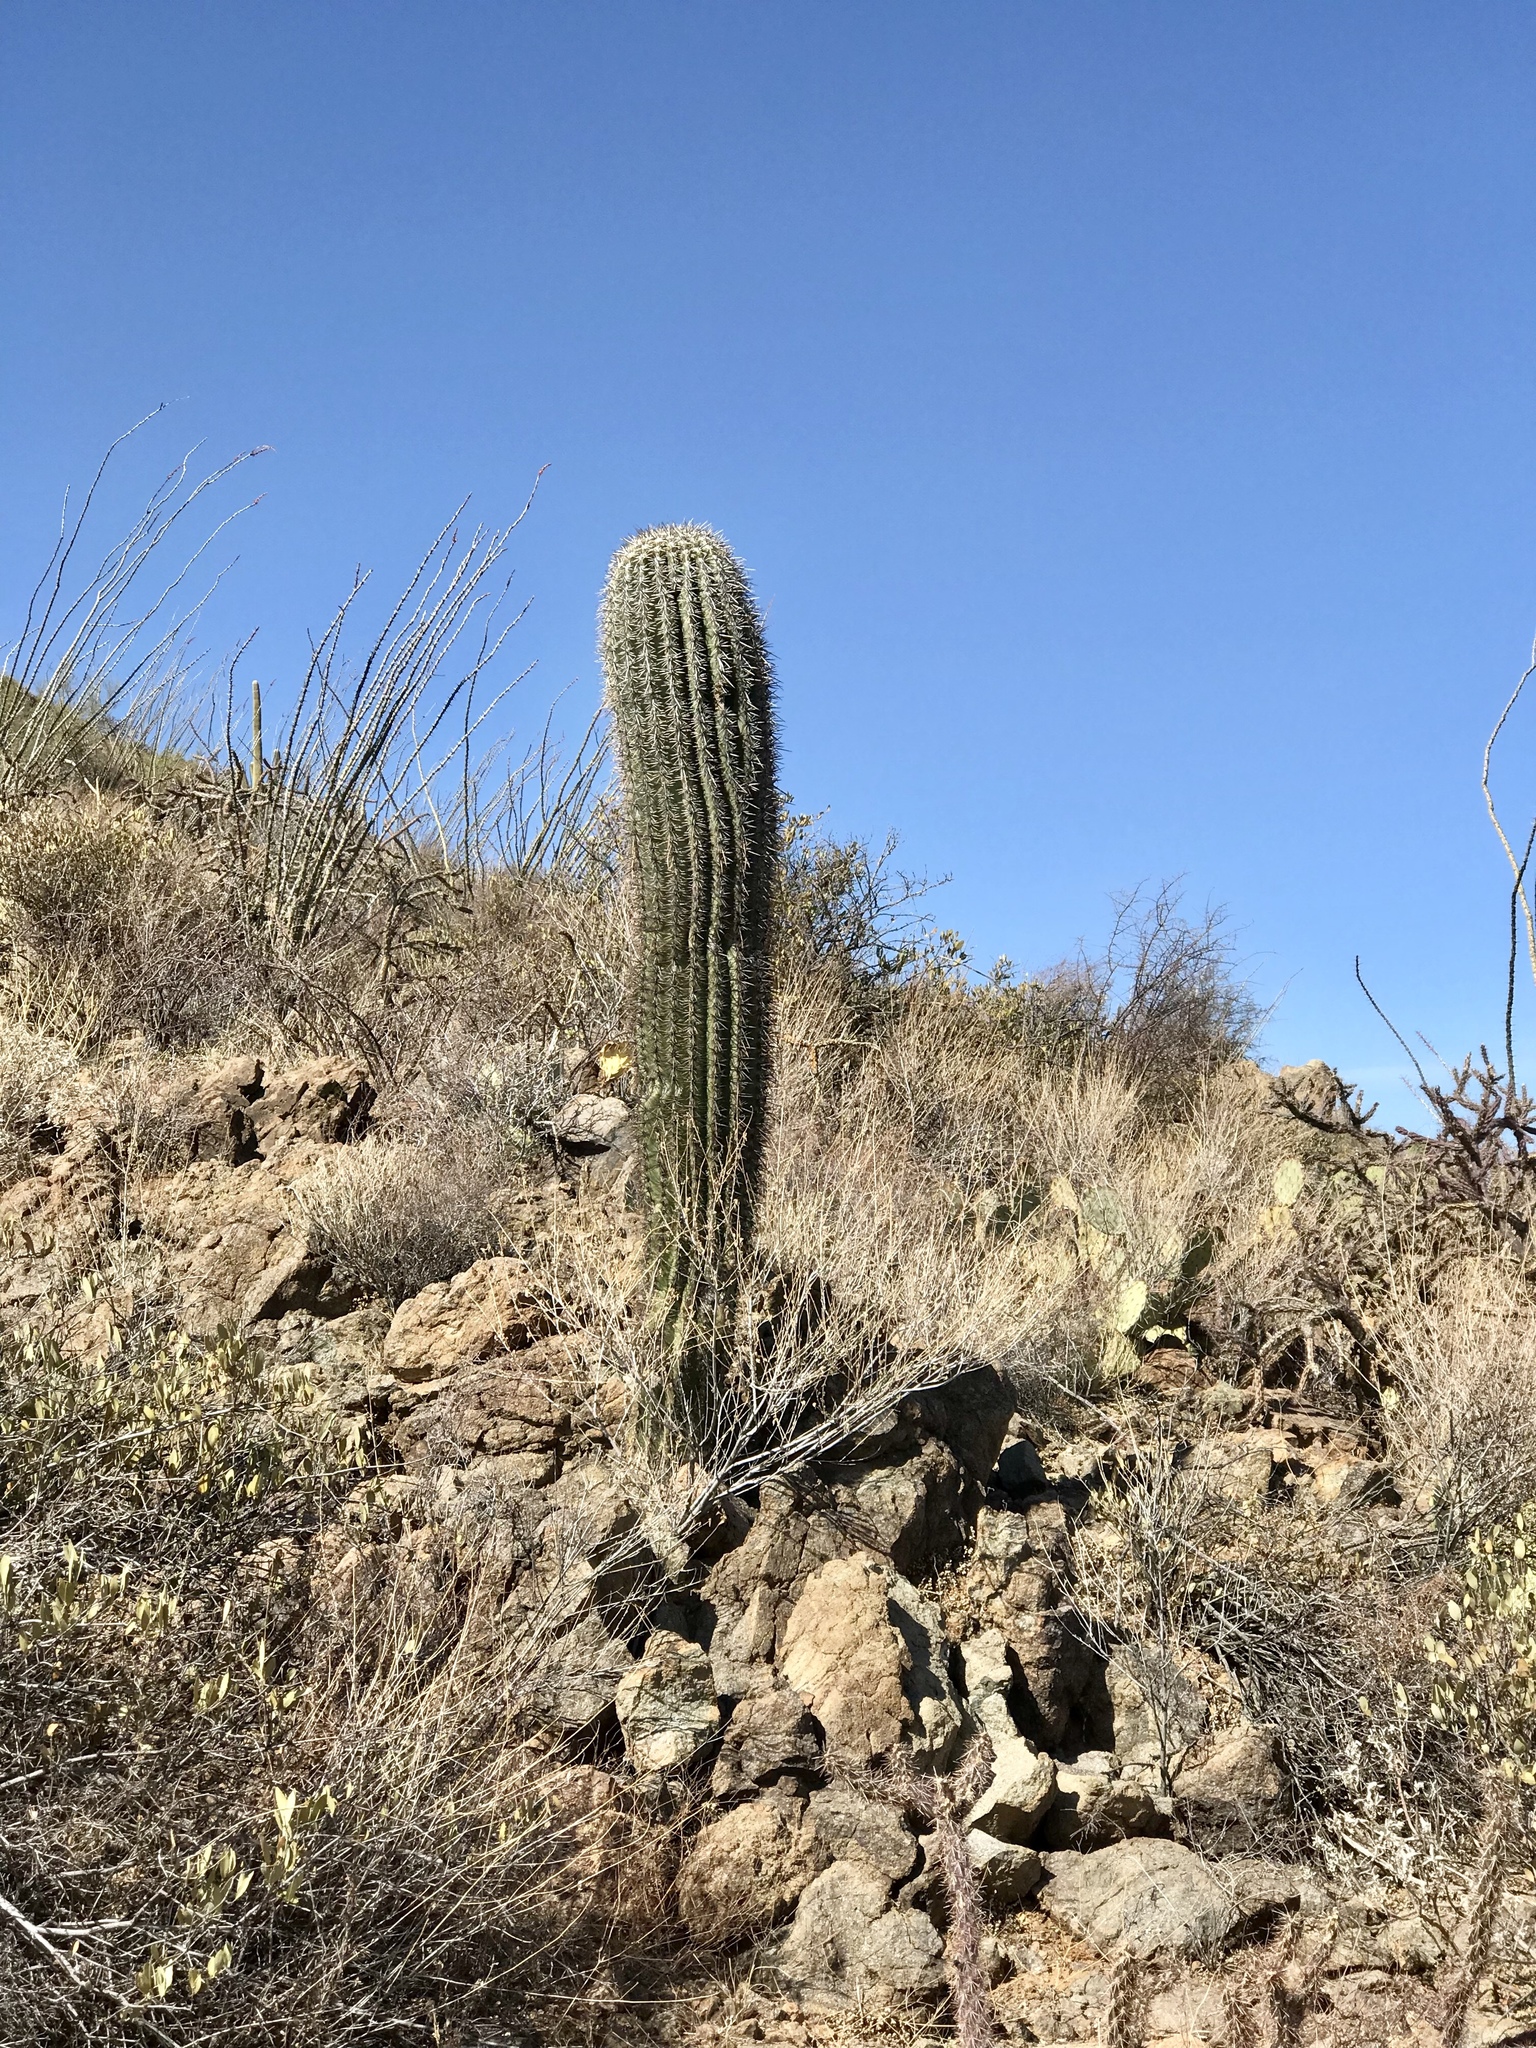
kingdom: Plantae
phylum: Tracheophyta
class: Magnoliopsida
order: Caryophyllales
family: Cactaceae
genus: Carnegiea
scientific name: Carnegiea gigantea
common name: Saguaro
